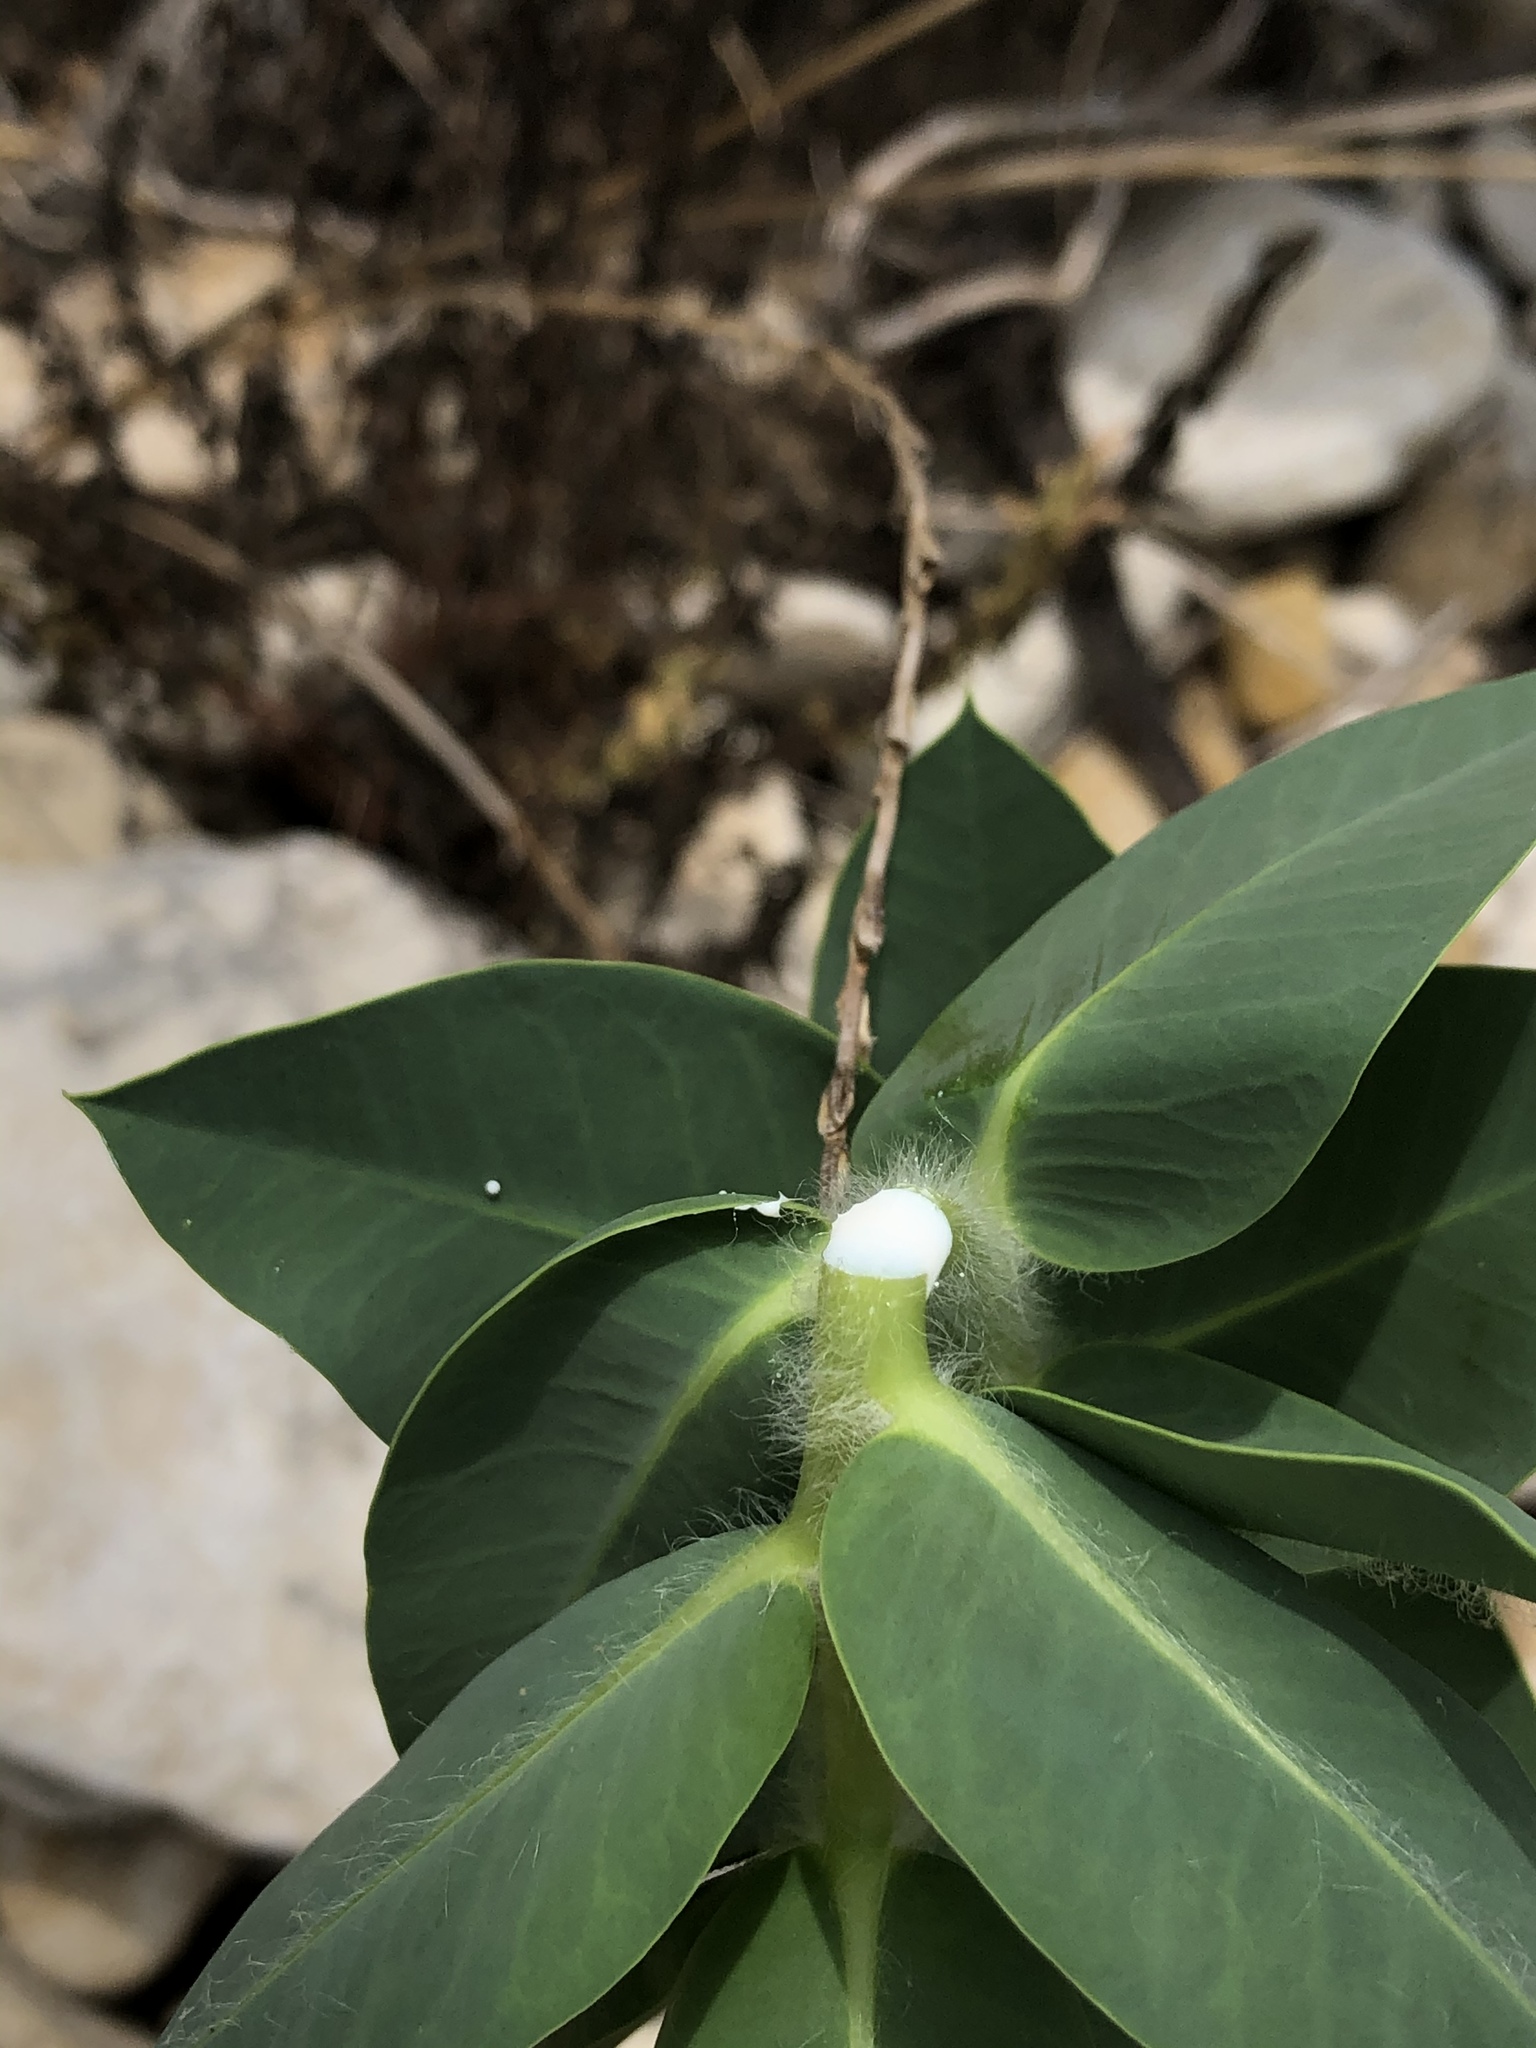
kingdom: Plantae
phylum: Tracheophyta
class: Magnoliopsida
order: Malpighiales
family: Euphorbiaceae
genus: Euphorbia
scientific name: Euphorbia marginata
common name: Ghostweed
